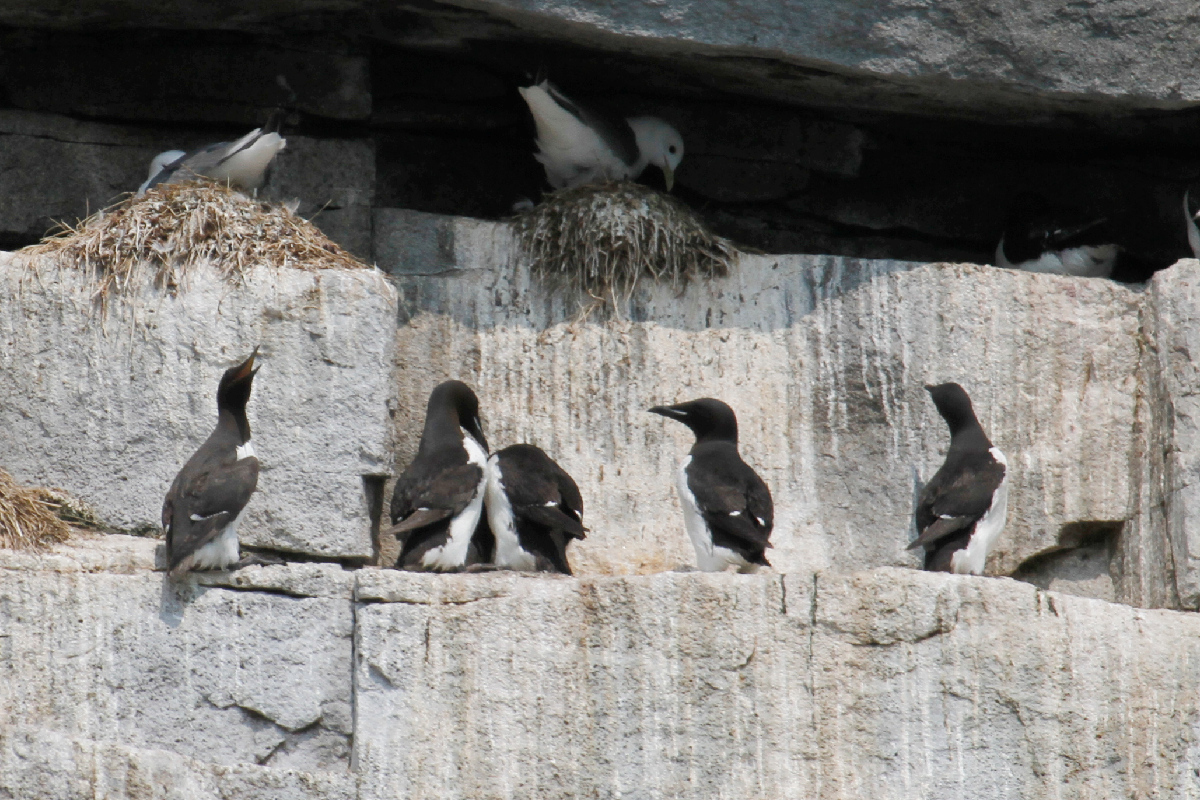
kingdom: Animalia
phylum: Chordata
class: Aves
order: Charadriiformes
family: Alcidae
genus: Uria
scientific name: Uria aalge
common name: Common murre
